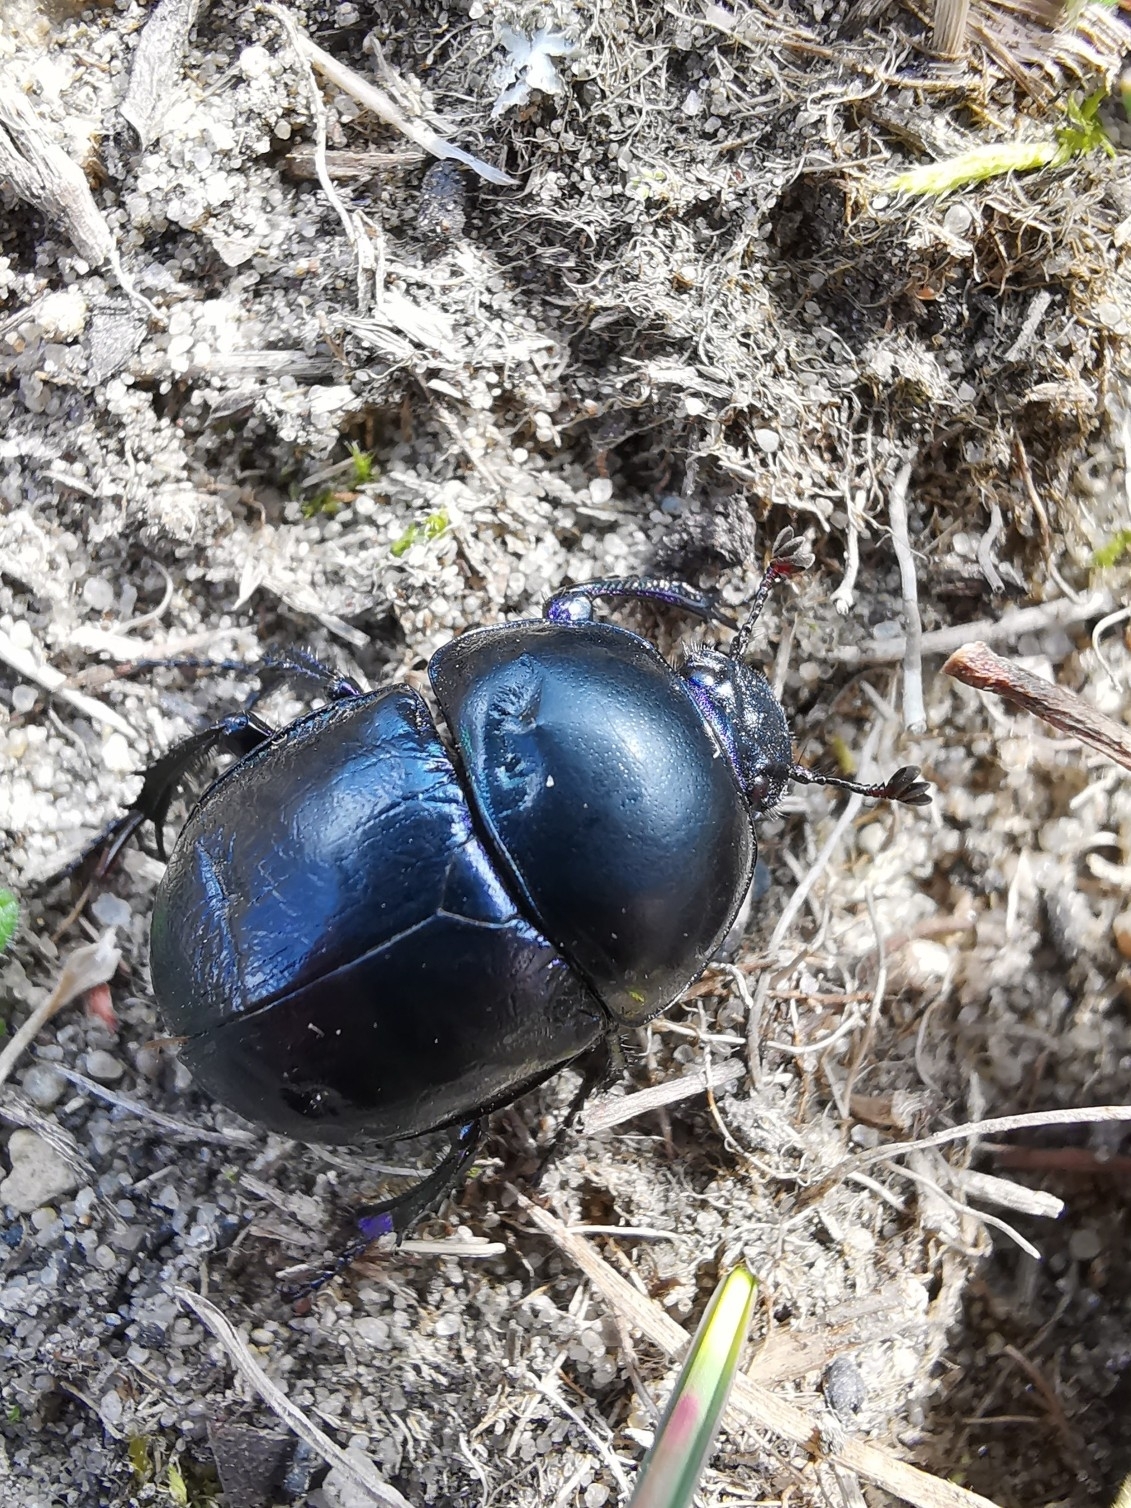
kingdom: Animalia
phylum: Arthropoda
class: Insecta
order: Coleoptera
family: Geotrupidae
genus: Trypocopris
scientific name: Trypocopris vernalis
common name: Spring dumbledor
